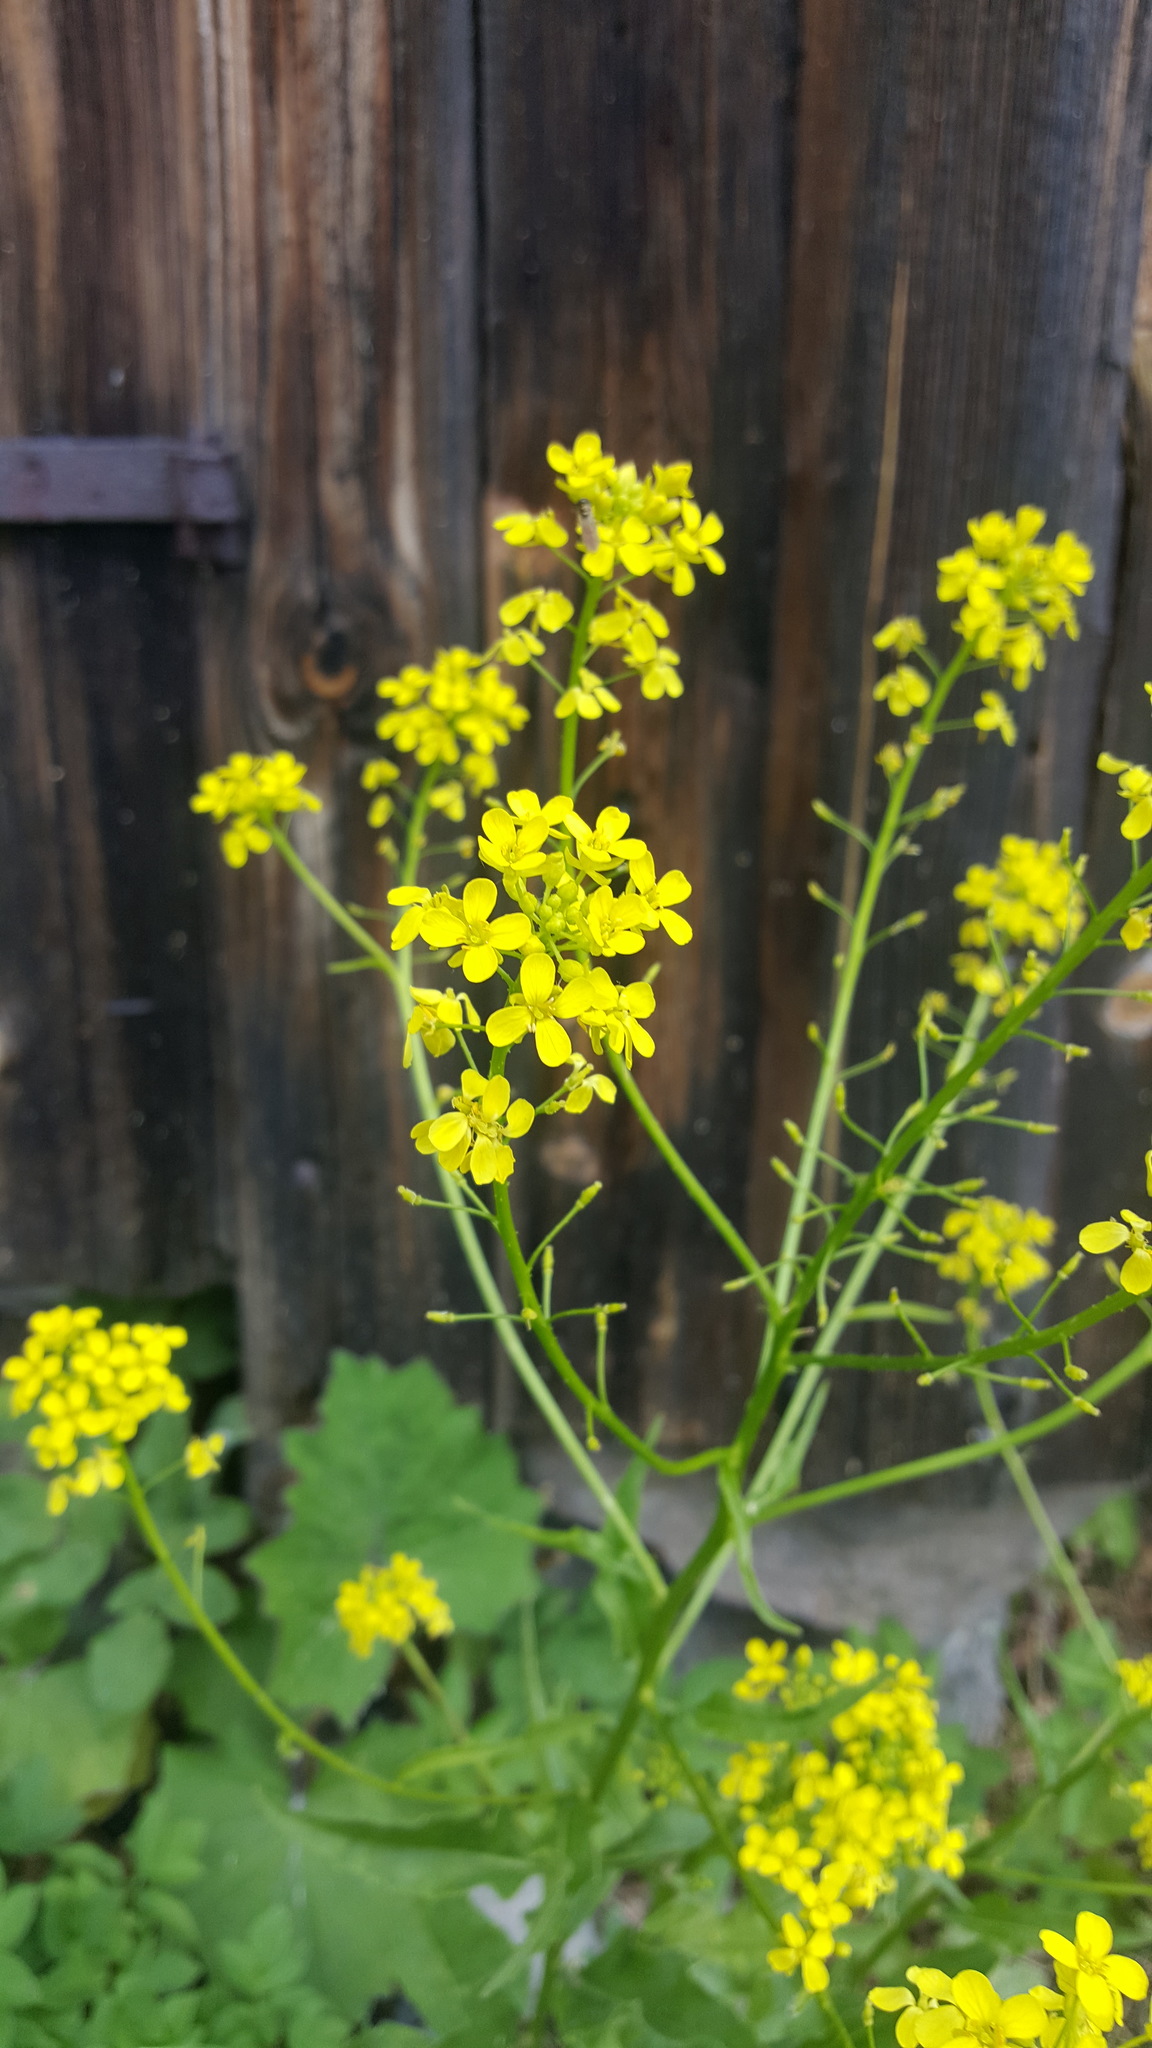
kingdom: Plantae
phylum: Tracheophyta
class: Magnoliopsida
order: Brassicales
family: Brassicaceae
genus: Bunias
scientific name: Bunias orientalis
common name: Warty-cabbage
